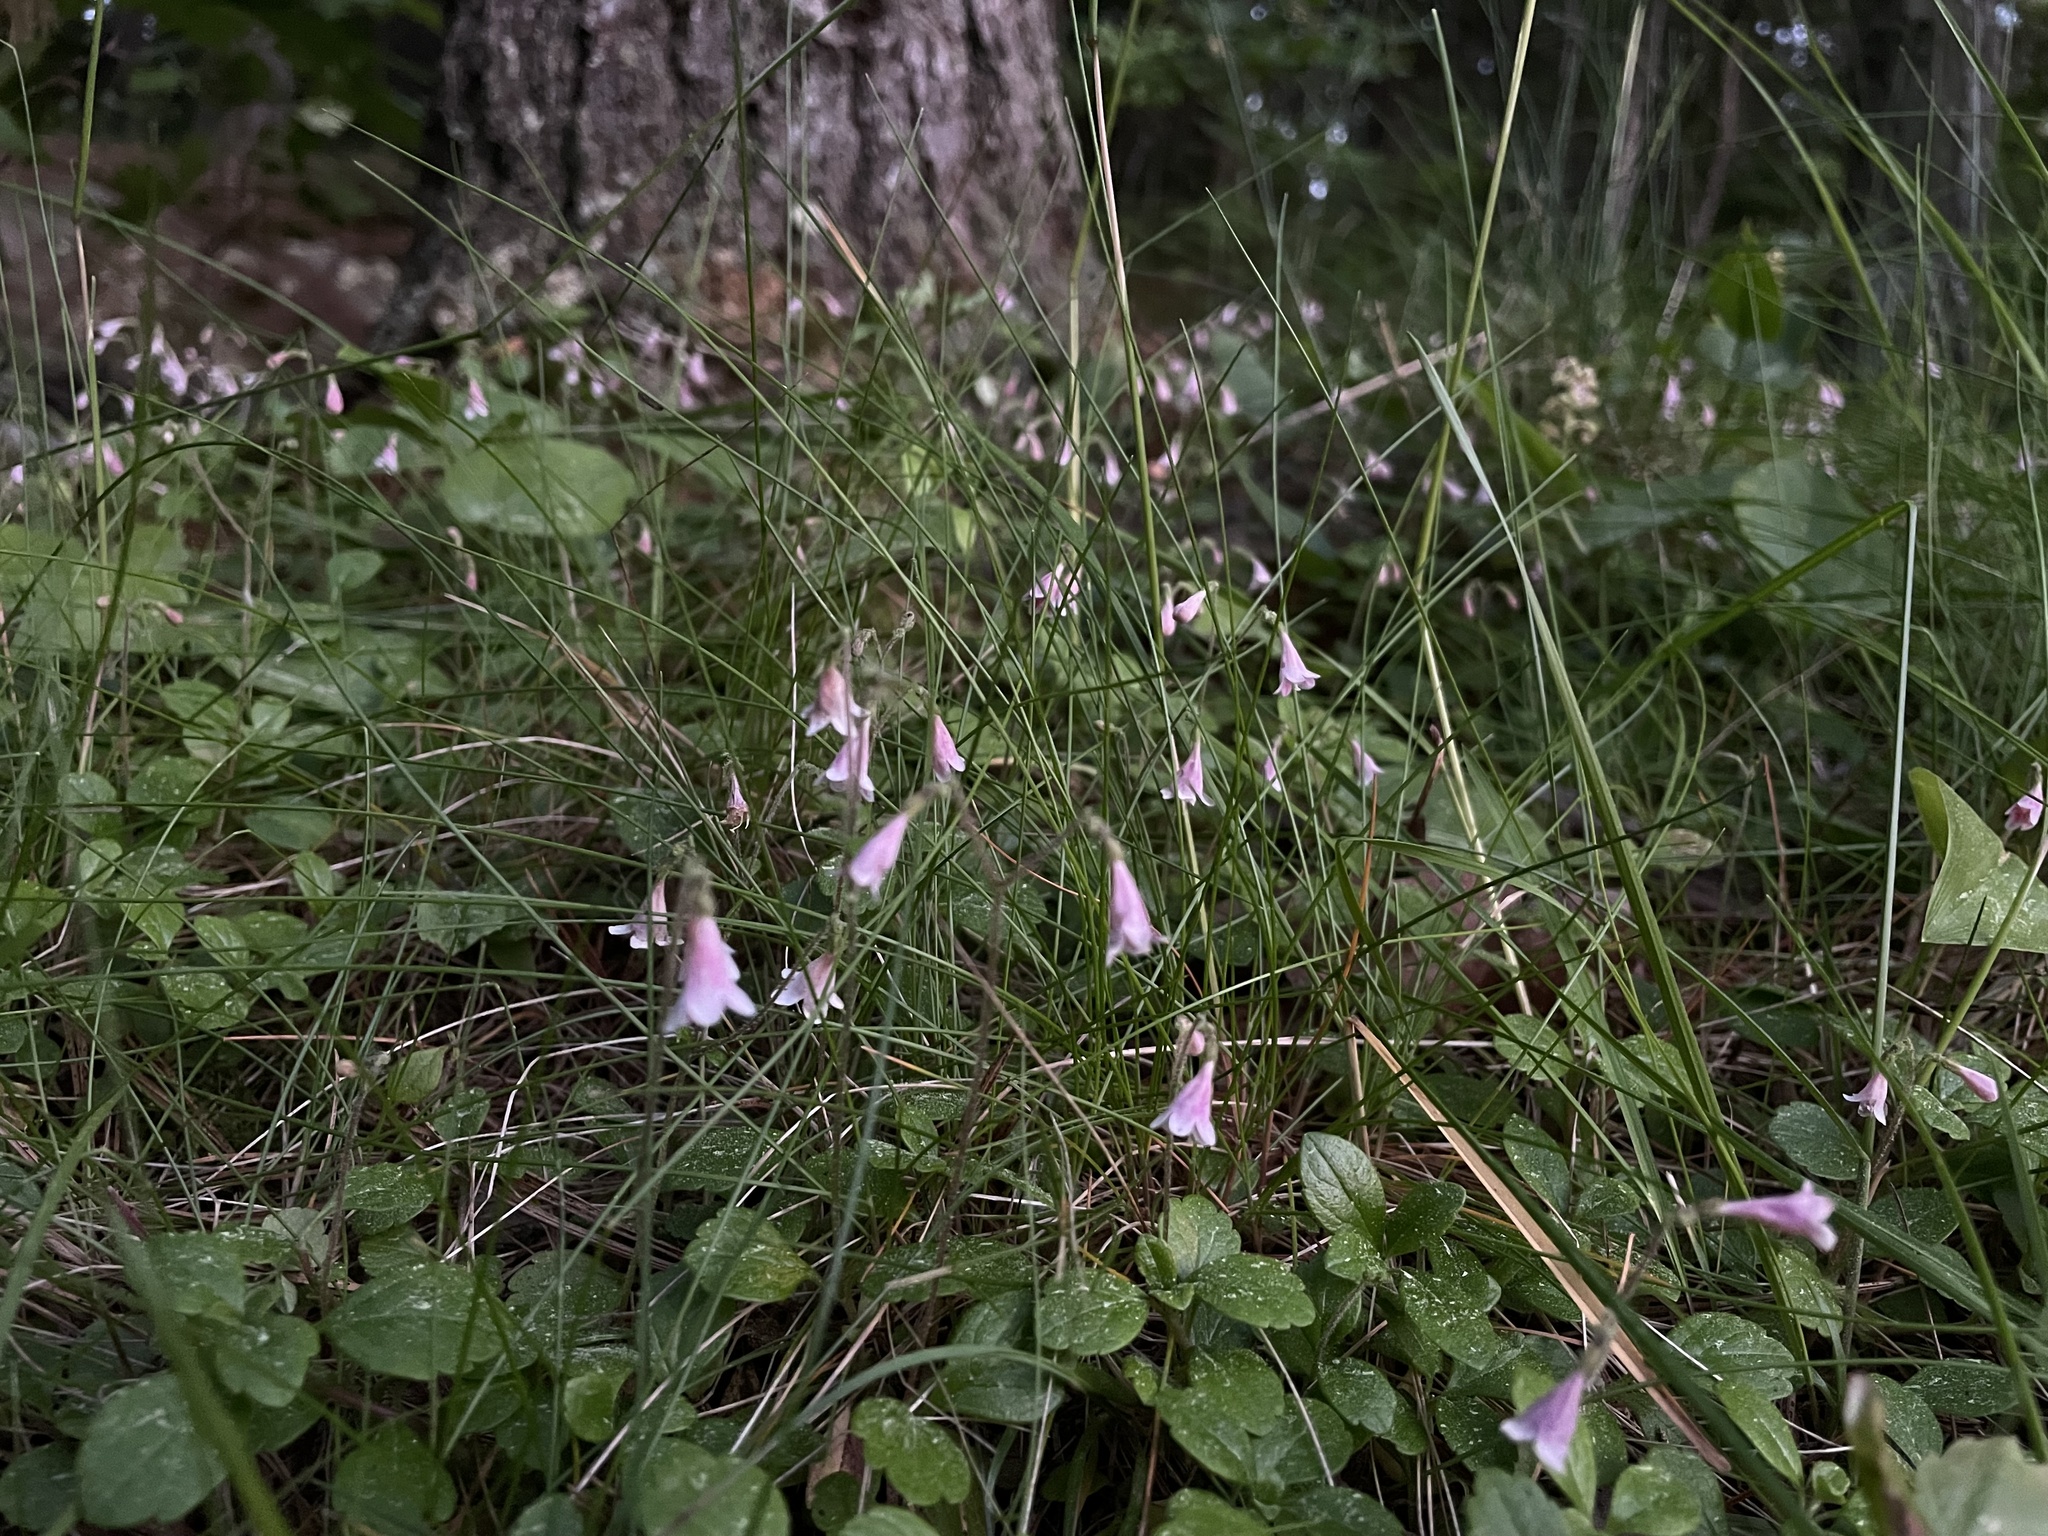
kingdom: Plantae
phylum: Tracheophyta
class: Magnoliopsida
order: Dipsacales
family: Caprifoliaceae
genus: Linnaea
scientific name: Linnaea borealis
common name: Twinflower
